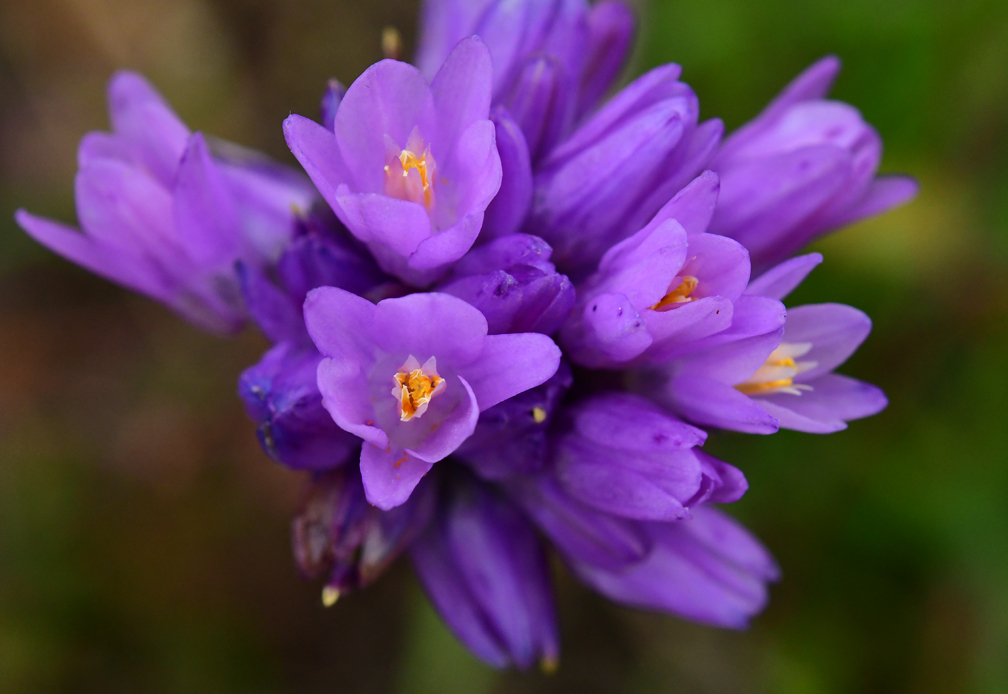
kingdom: Plantae
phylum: Tracheophyta
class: Liliopsida
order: Asparagales
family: Asparagaceae
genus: Dipterostemon
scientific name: Dipterostemon capitatus
